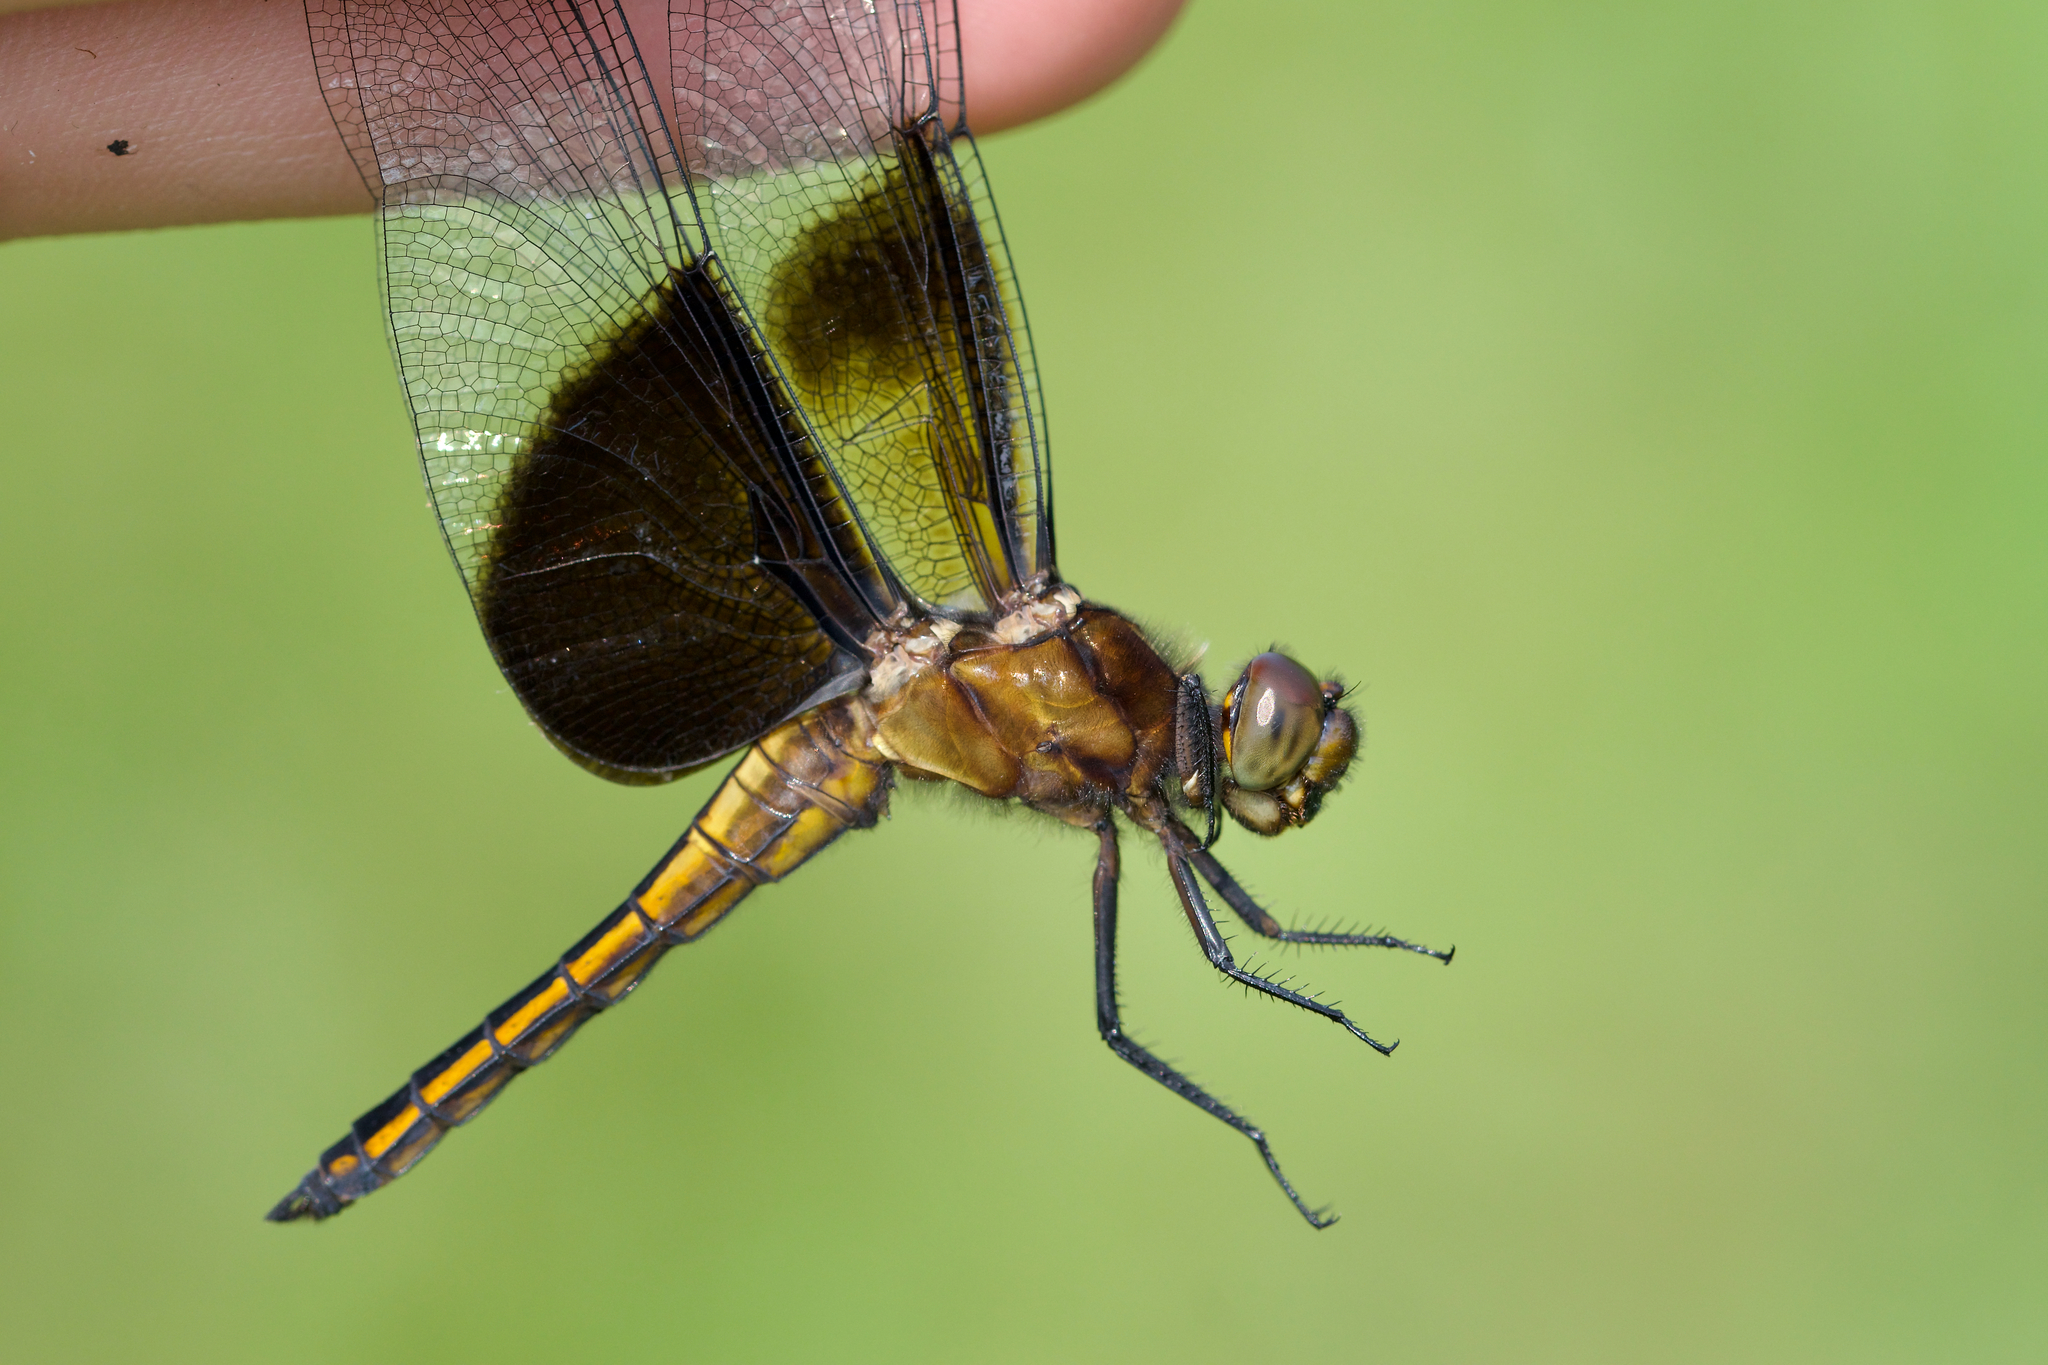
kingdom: Animalia
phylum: Arthropoda
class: Insecta
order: Odonata
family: Libellulidae
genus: Libellula
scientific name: Libellula luctuosa
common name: Widow skimmer
